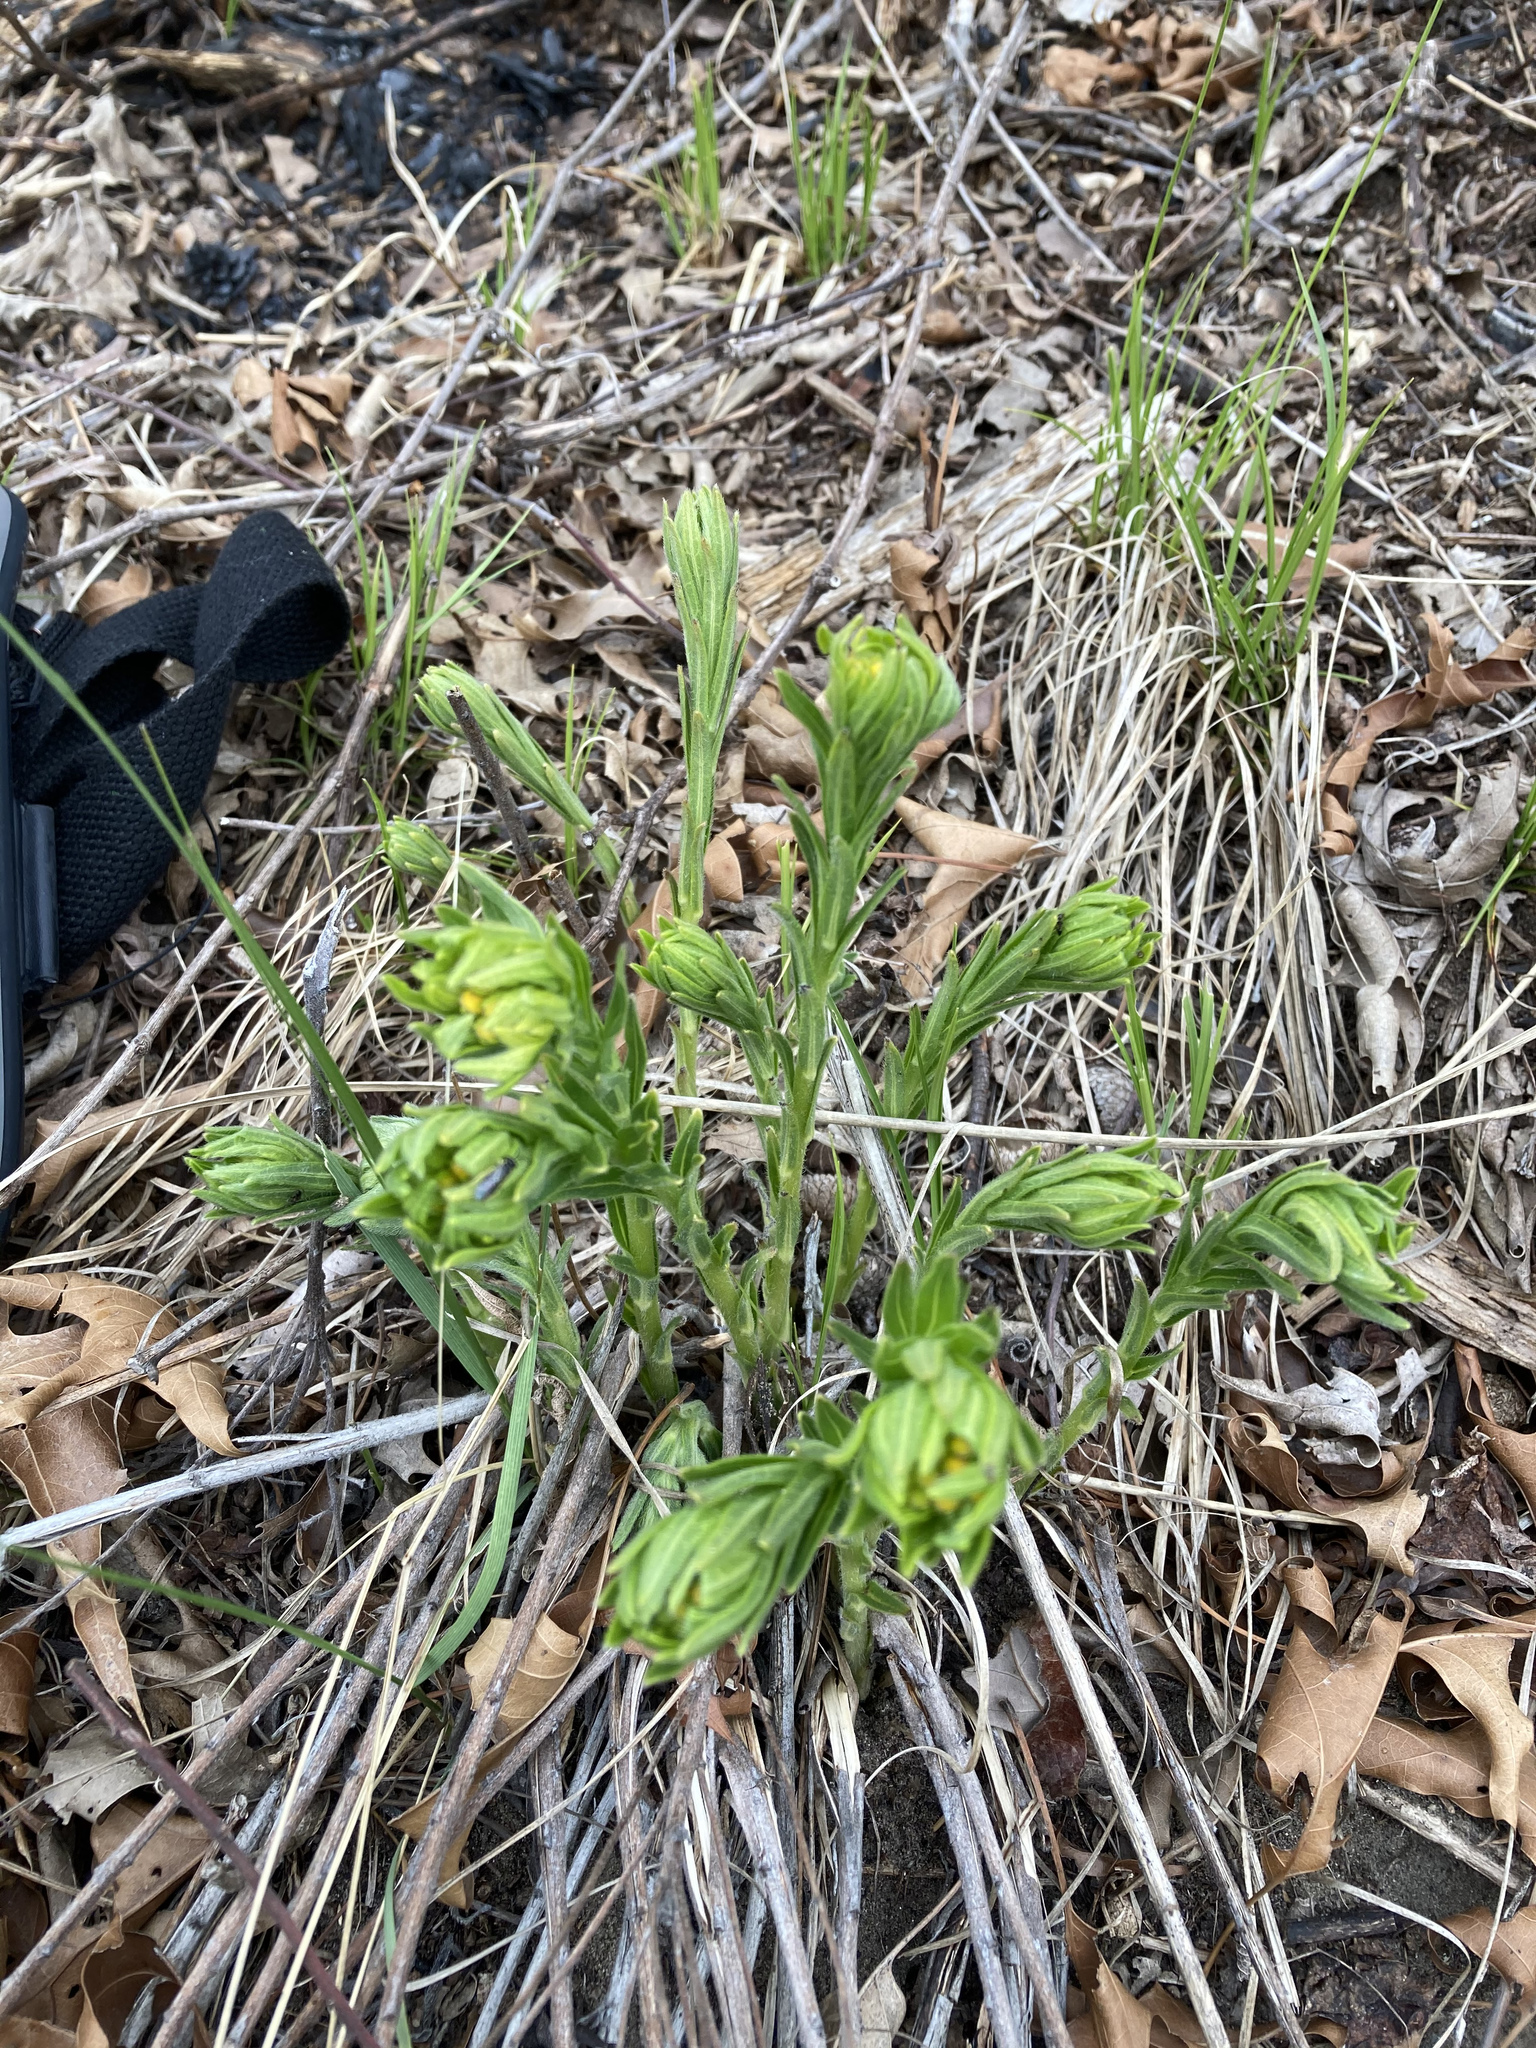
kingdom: Plantae
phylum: Tracheophyta
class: Magnoliopsida
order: Boraginales
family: Boraginaceae
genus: Lithospermum
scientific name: Lithospermum caroliniense
